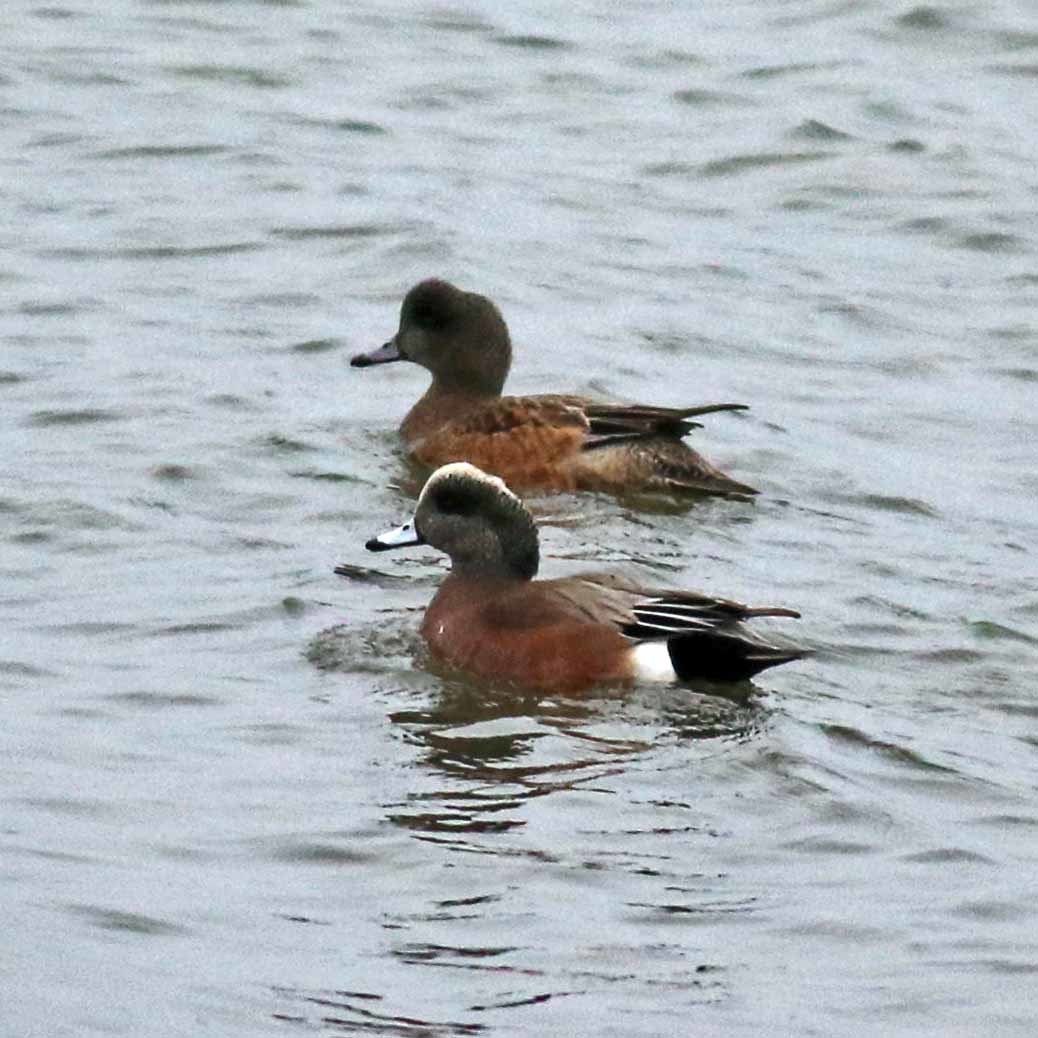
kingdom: Animalia
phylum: Chordata
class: Aves
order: Anseriformes
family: Anatidae
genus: Mareca
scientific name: Mareca americana
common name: American wigeon
